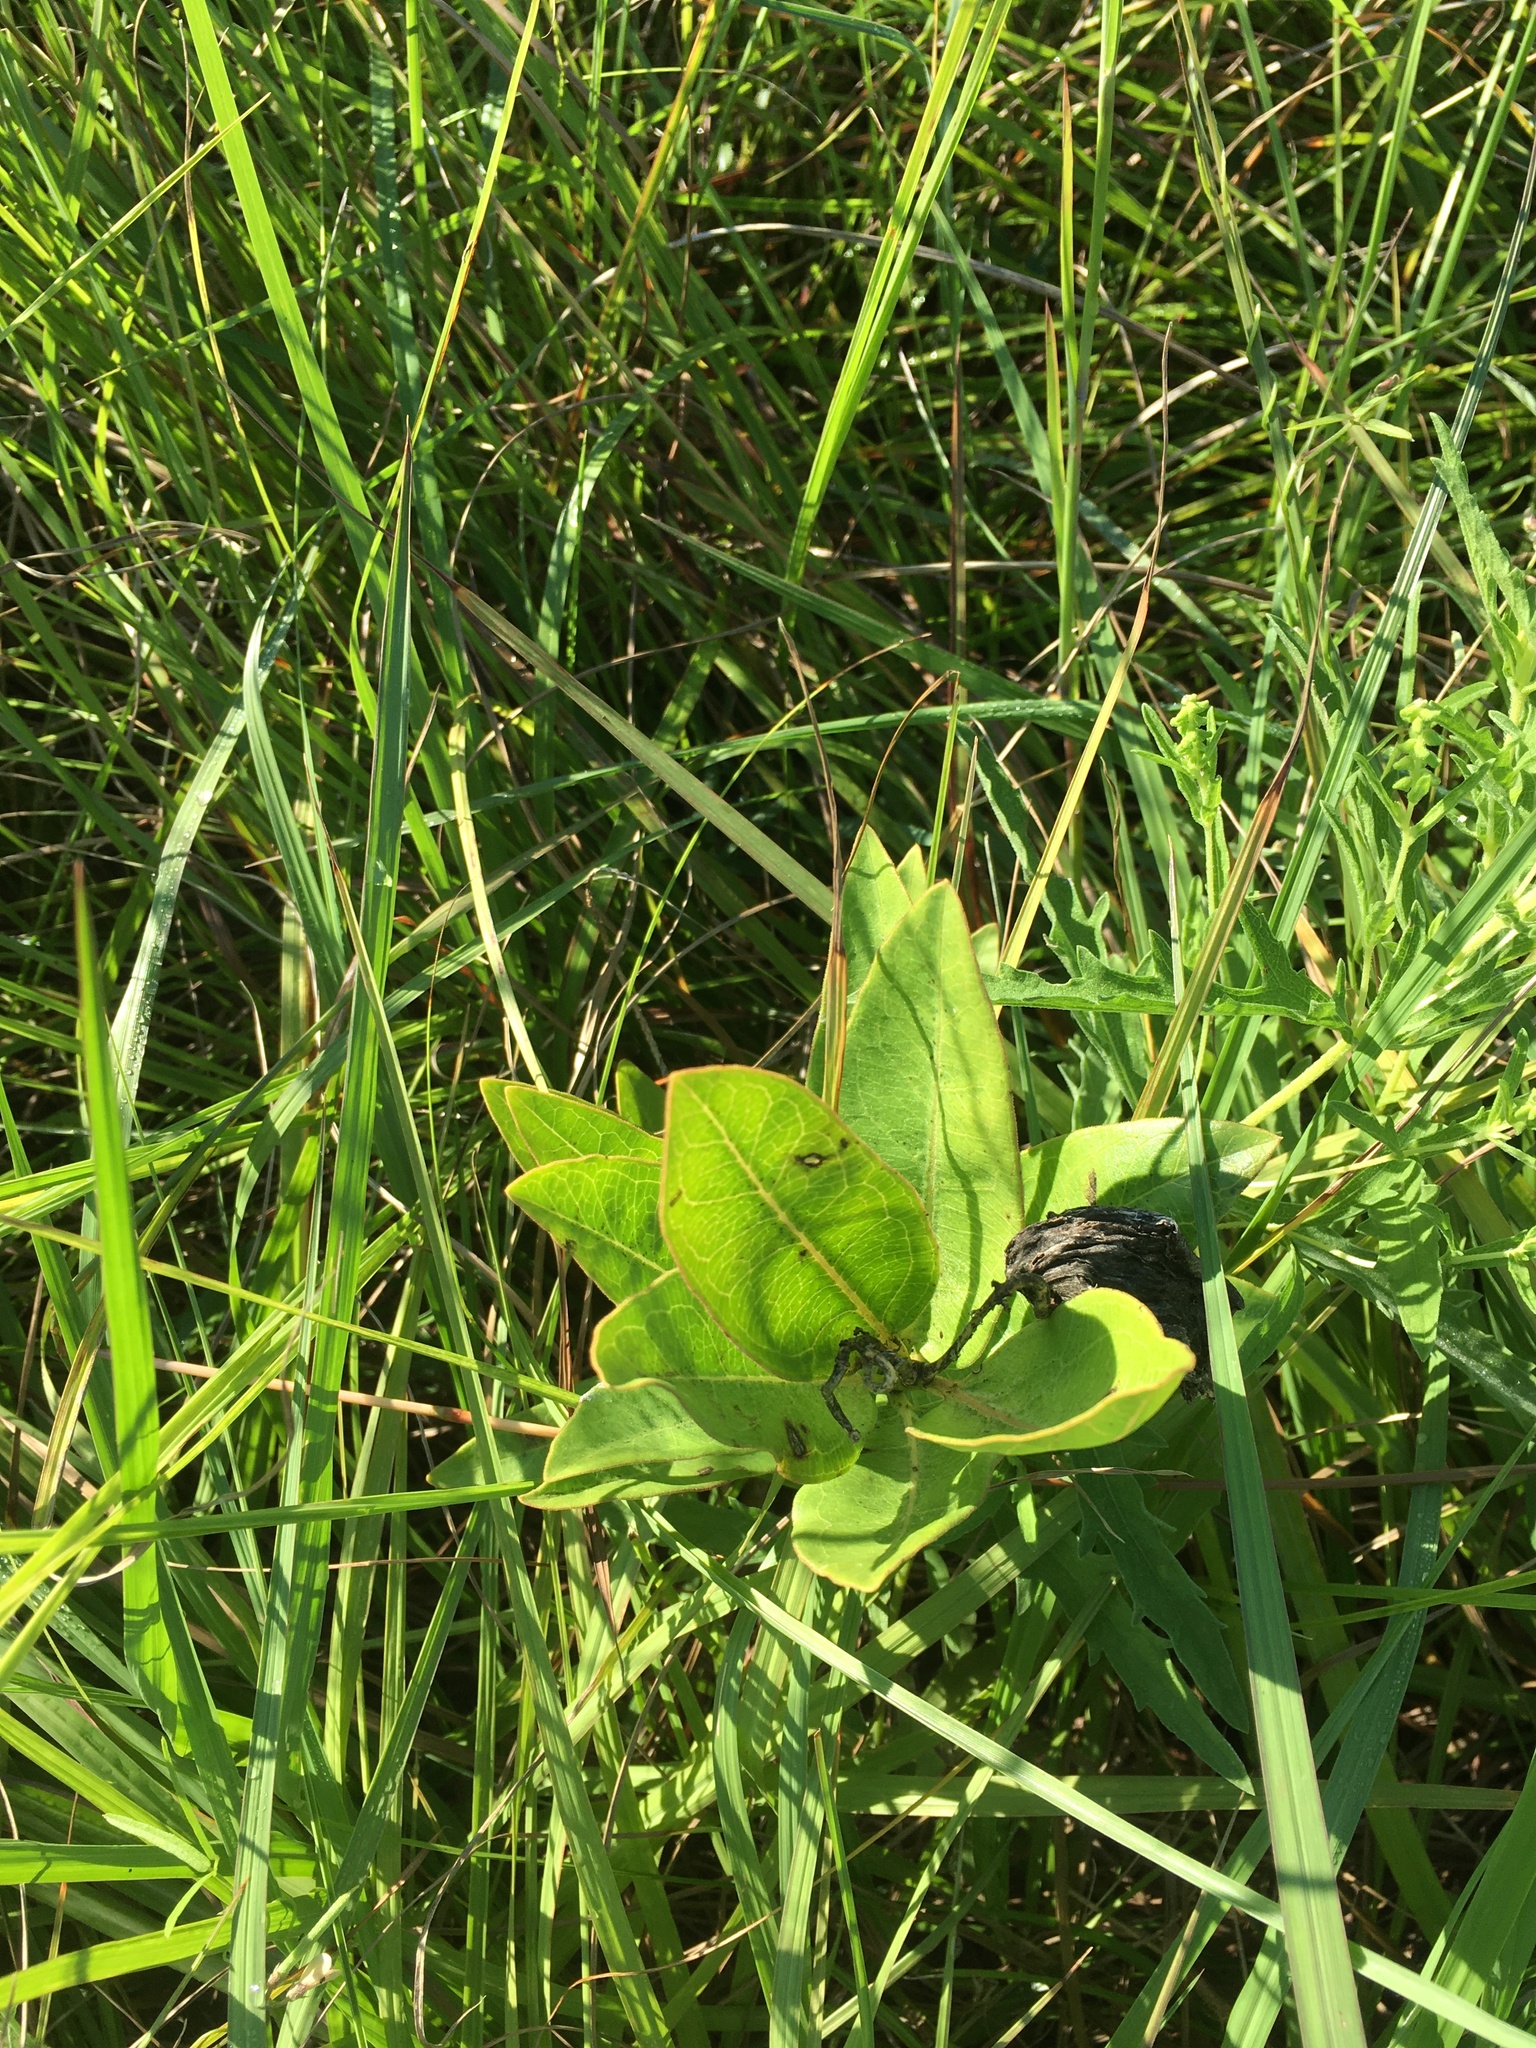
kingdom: Plantae
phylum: Tracheophyta
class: Magnoliopsida
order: Gentianales
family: Apocynaceae
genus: Asclepias
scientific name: Asclepias viridis
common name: Antelope-horns
